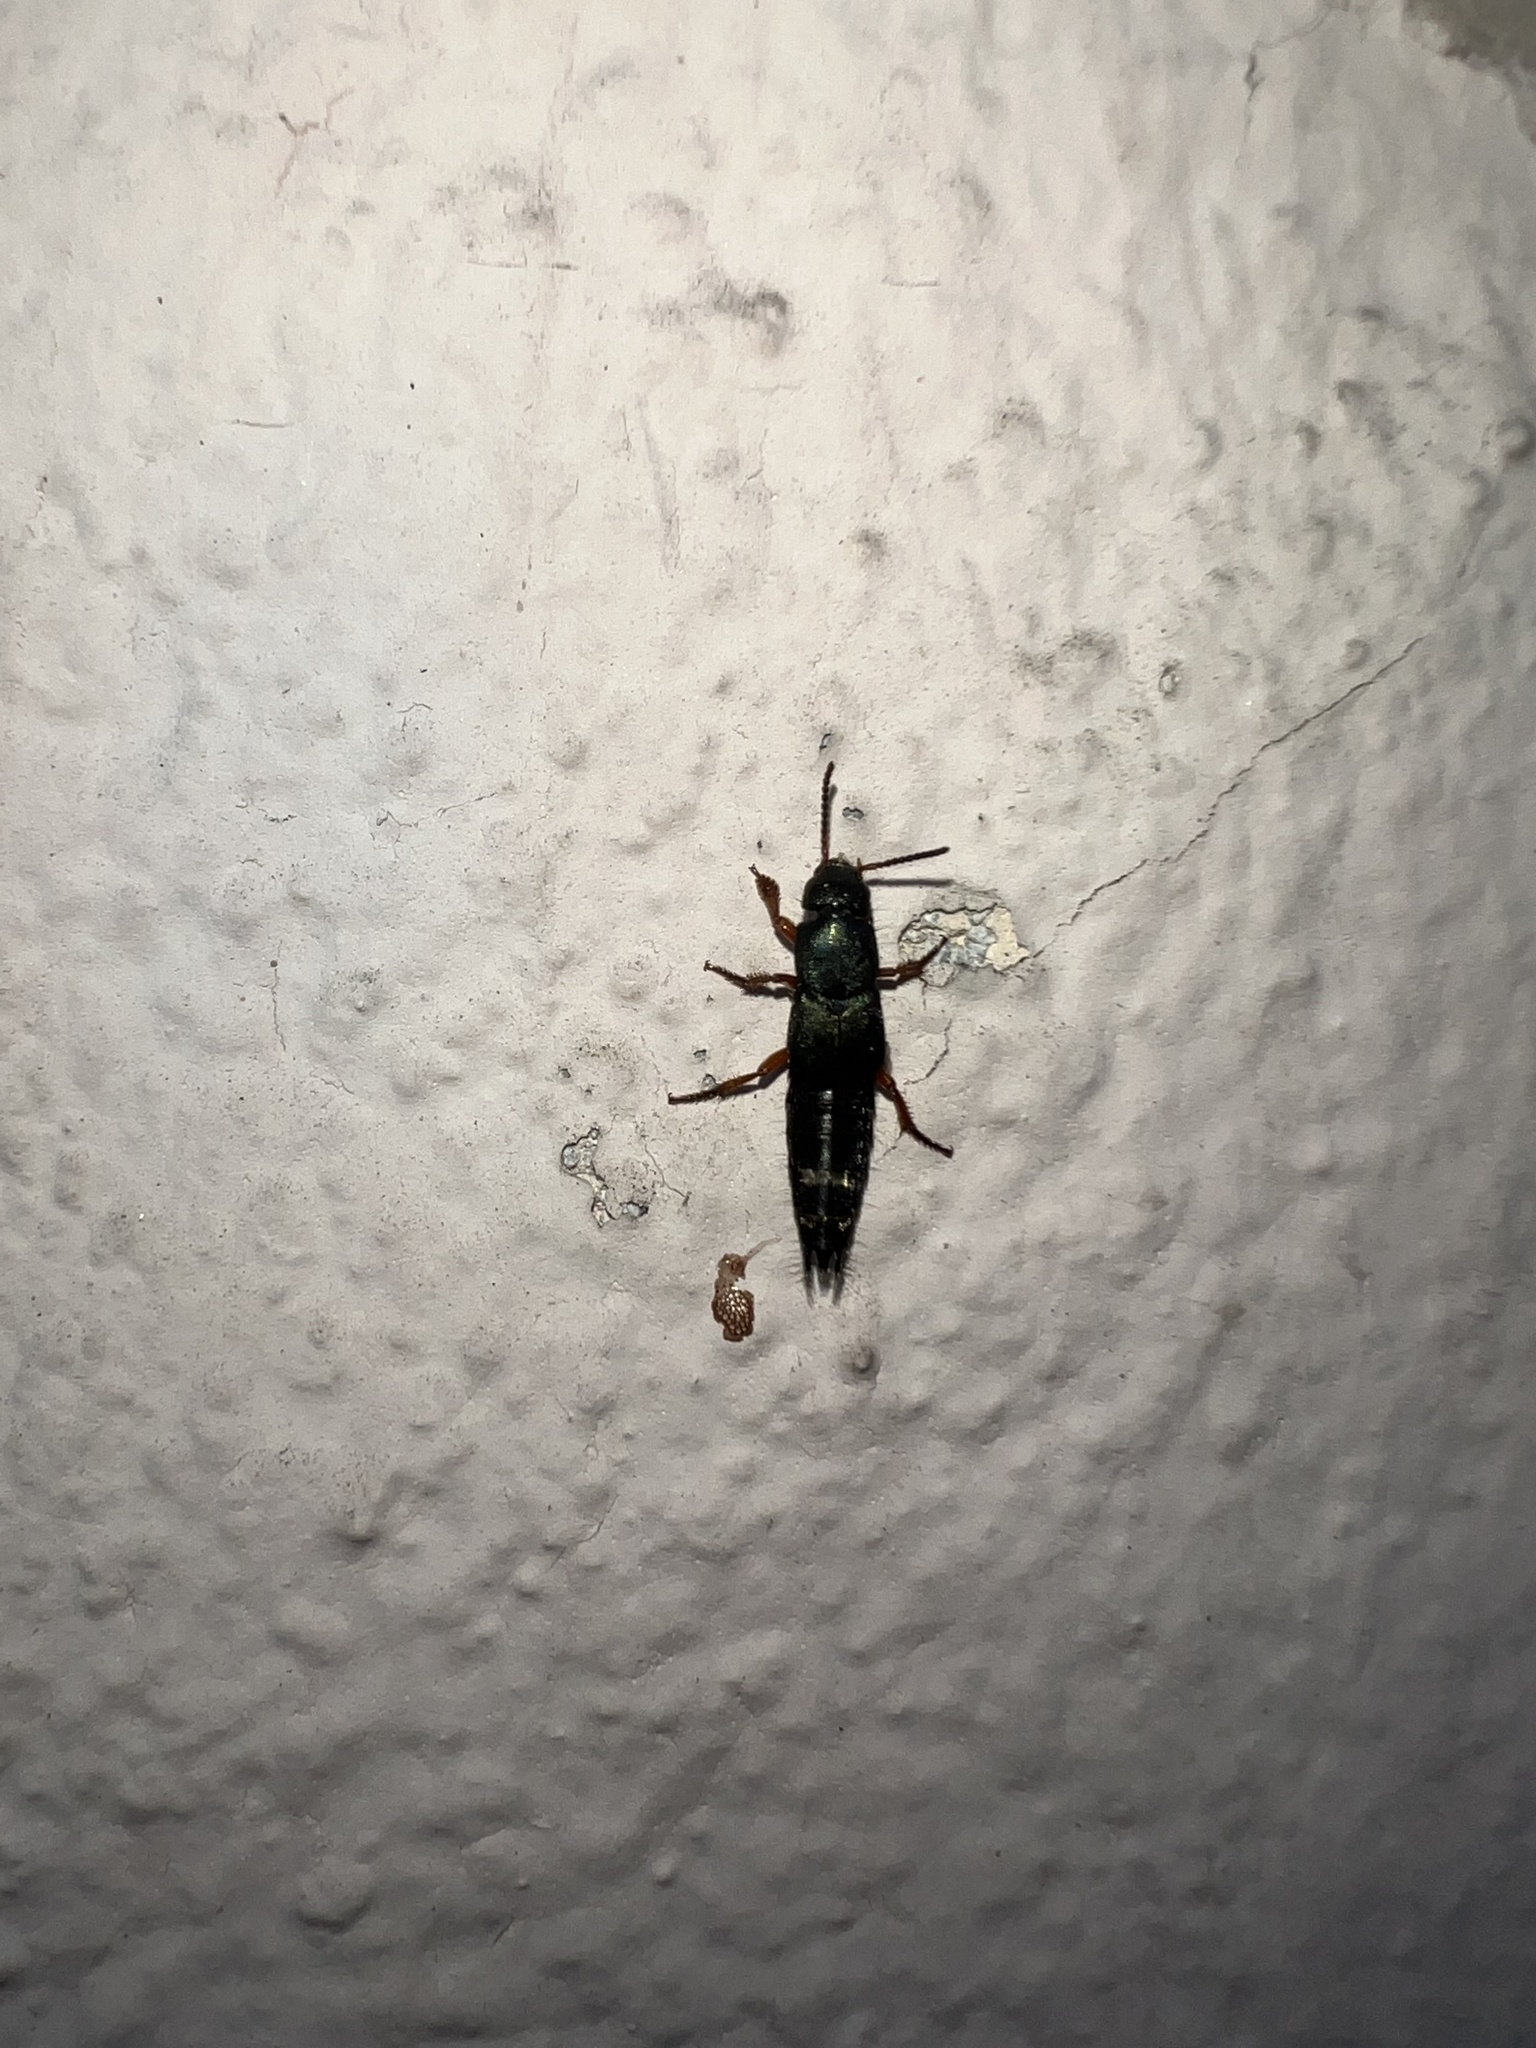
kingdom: Animalia
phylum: Arthropoda
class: Insecta
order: Coleoptera
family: Staphylinidae
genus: Platydracus
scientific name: Platydracus fulvipes
